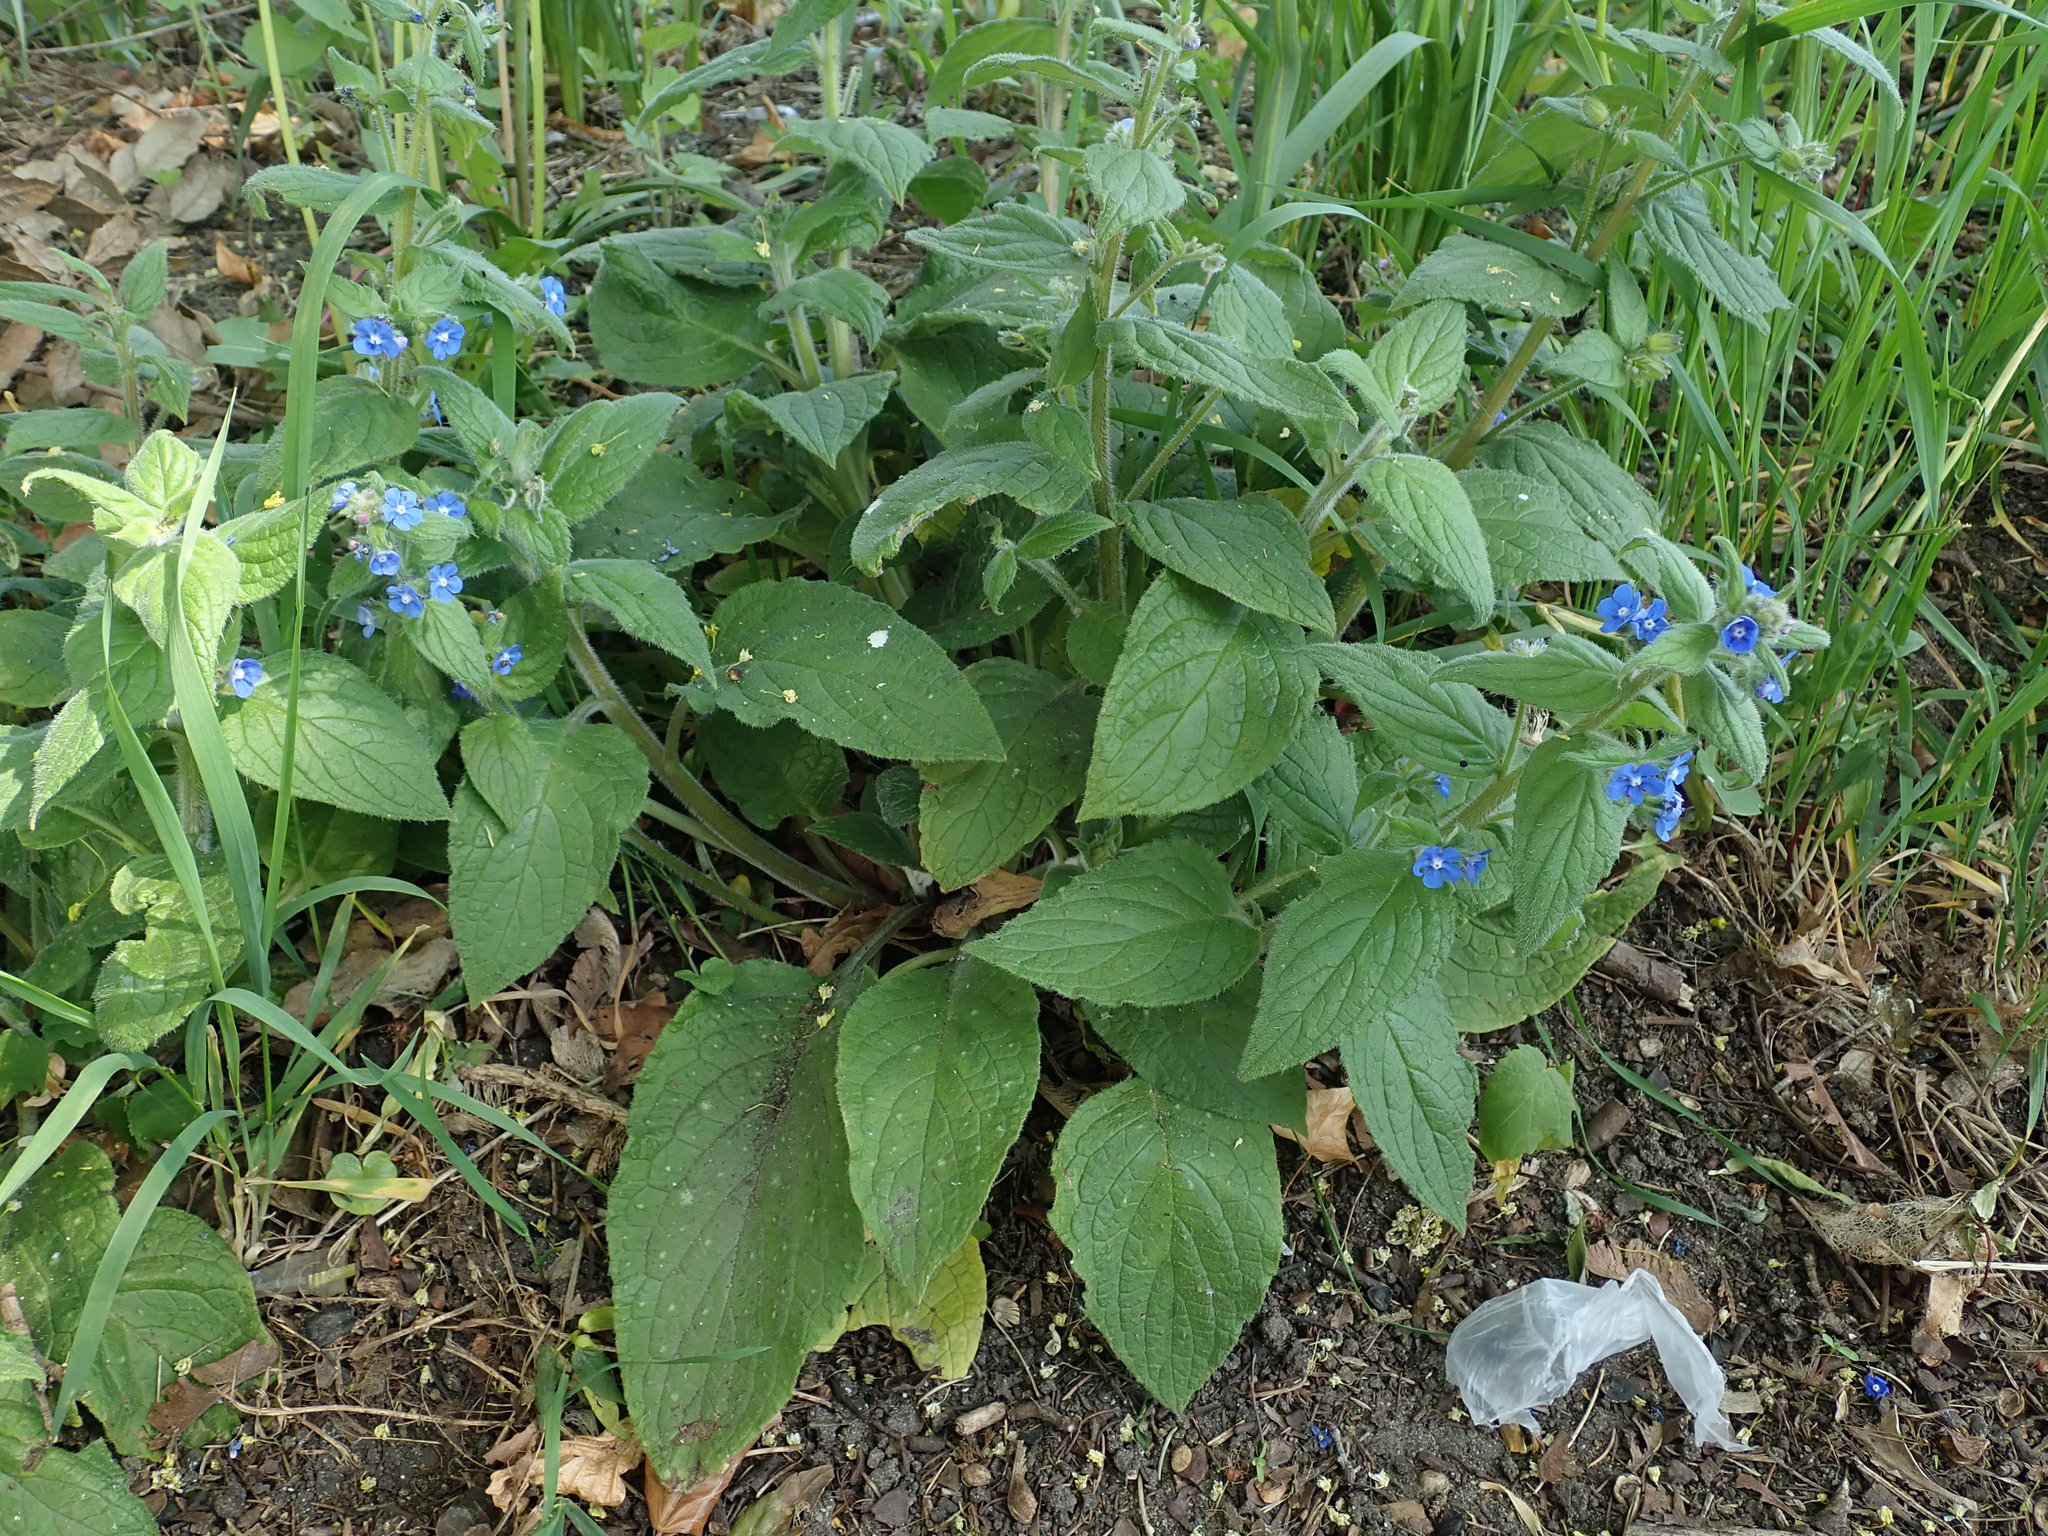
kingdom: Plantae
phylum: Tracheophyta
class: Magnoliopsida
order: Boraginales
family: Boraginaceae
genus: Pentaglottis
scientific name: Pentaglottis sempervirens
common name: Green alkanet
